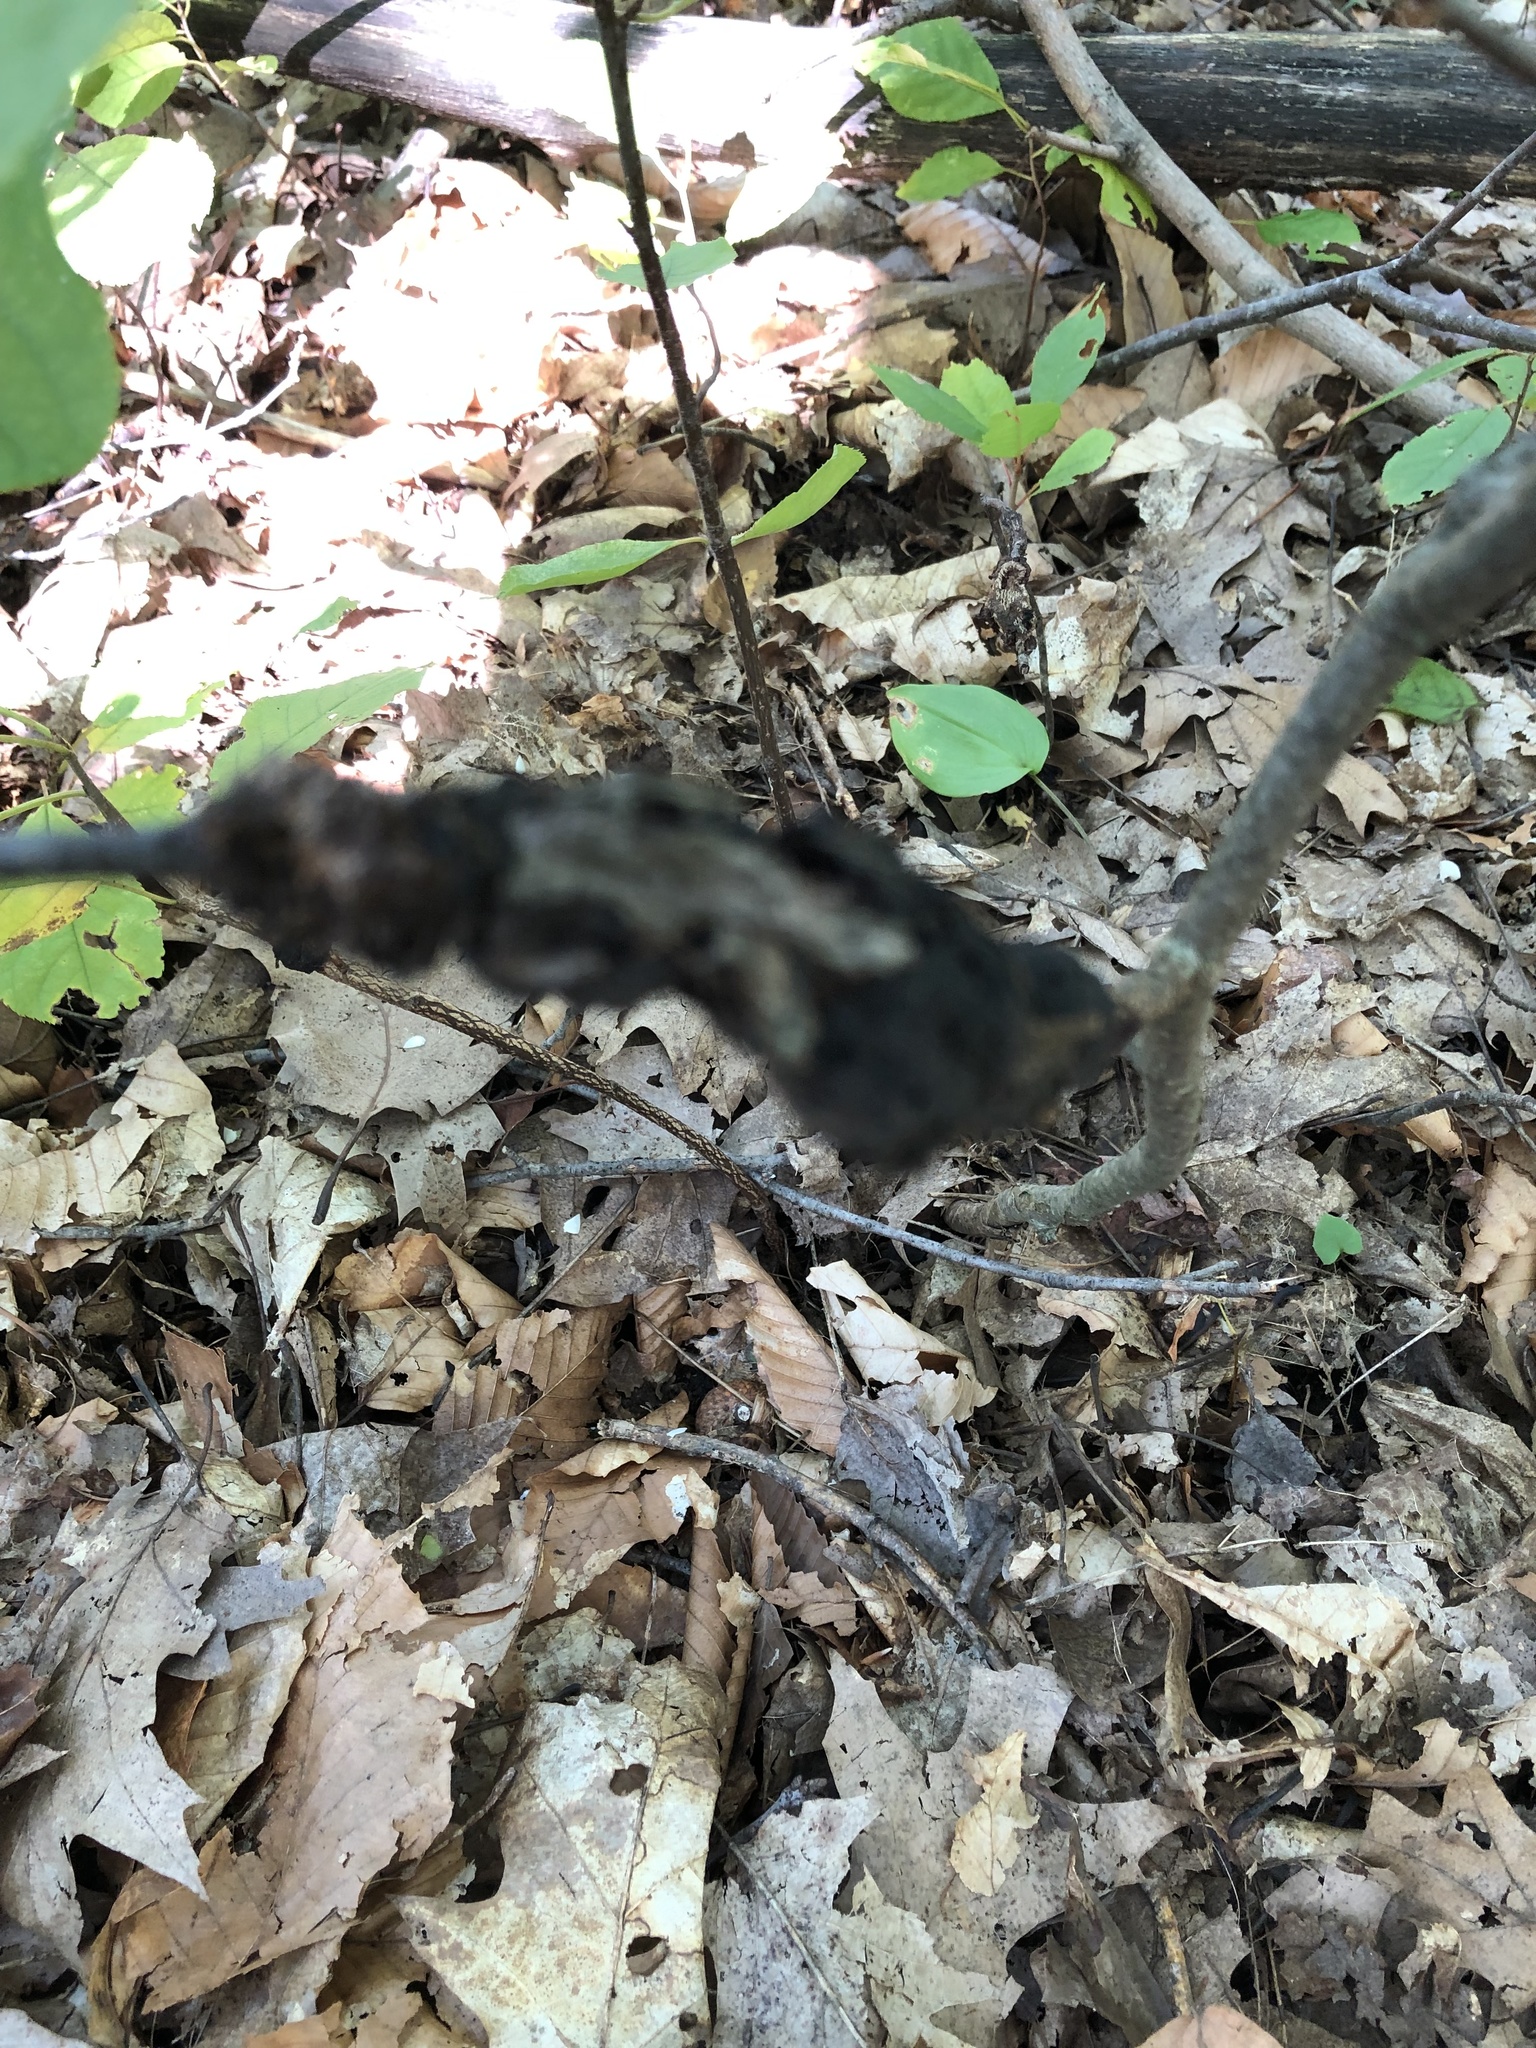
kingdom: Fungi
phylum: Ascomycota
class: Dothideomycetes
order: Venturiales
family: Venturiaceae
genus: Apiosporina
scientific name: Apiosporina morbosa
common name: Black knot
